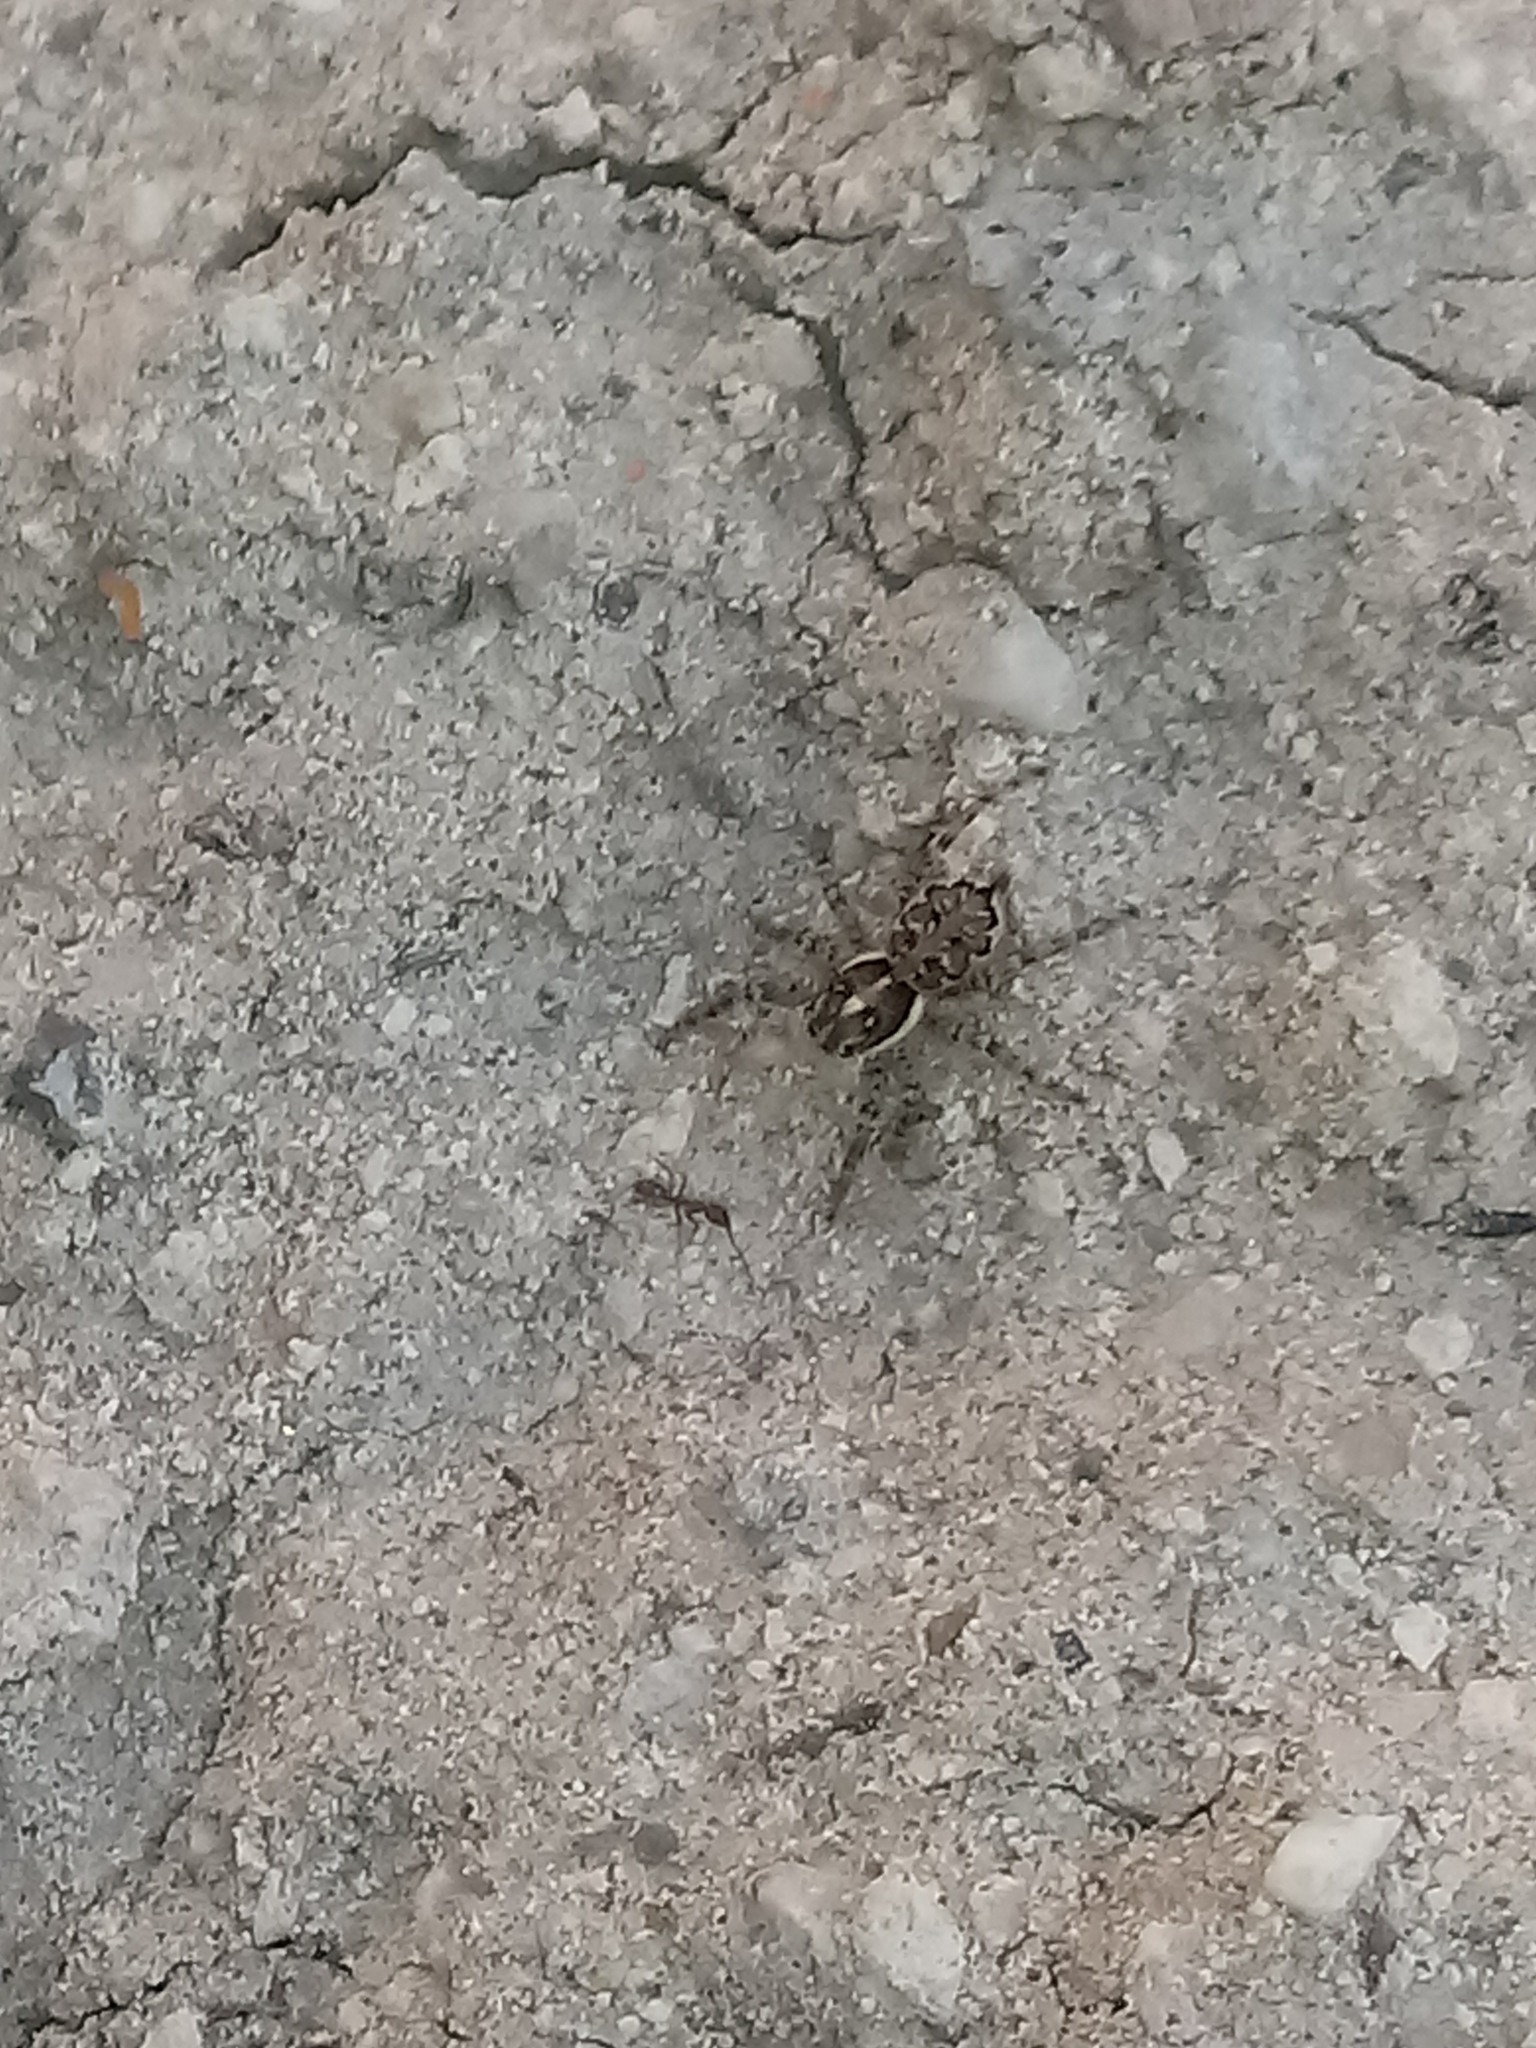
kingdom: Animalia
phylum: Arthropoda
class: Arachnida
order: Araneae
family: Salticidae
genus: Menemerus
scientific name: Menemerus semilimbatus
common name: Jumping spider
